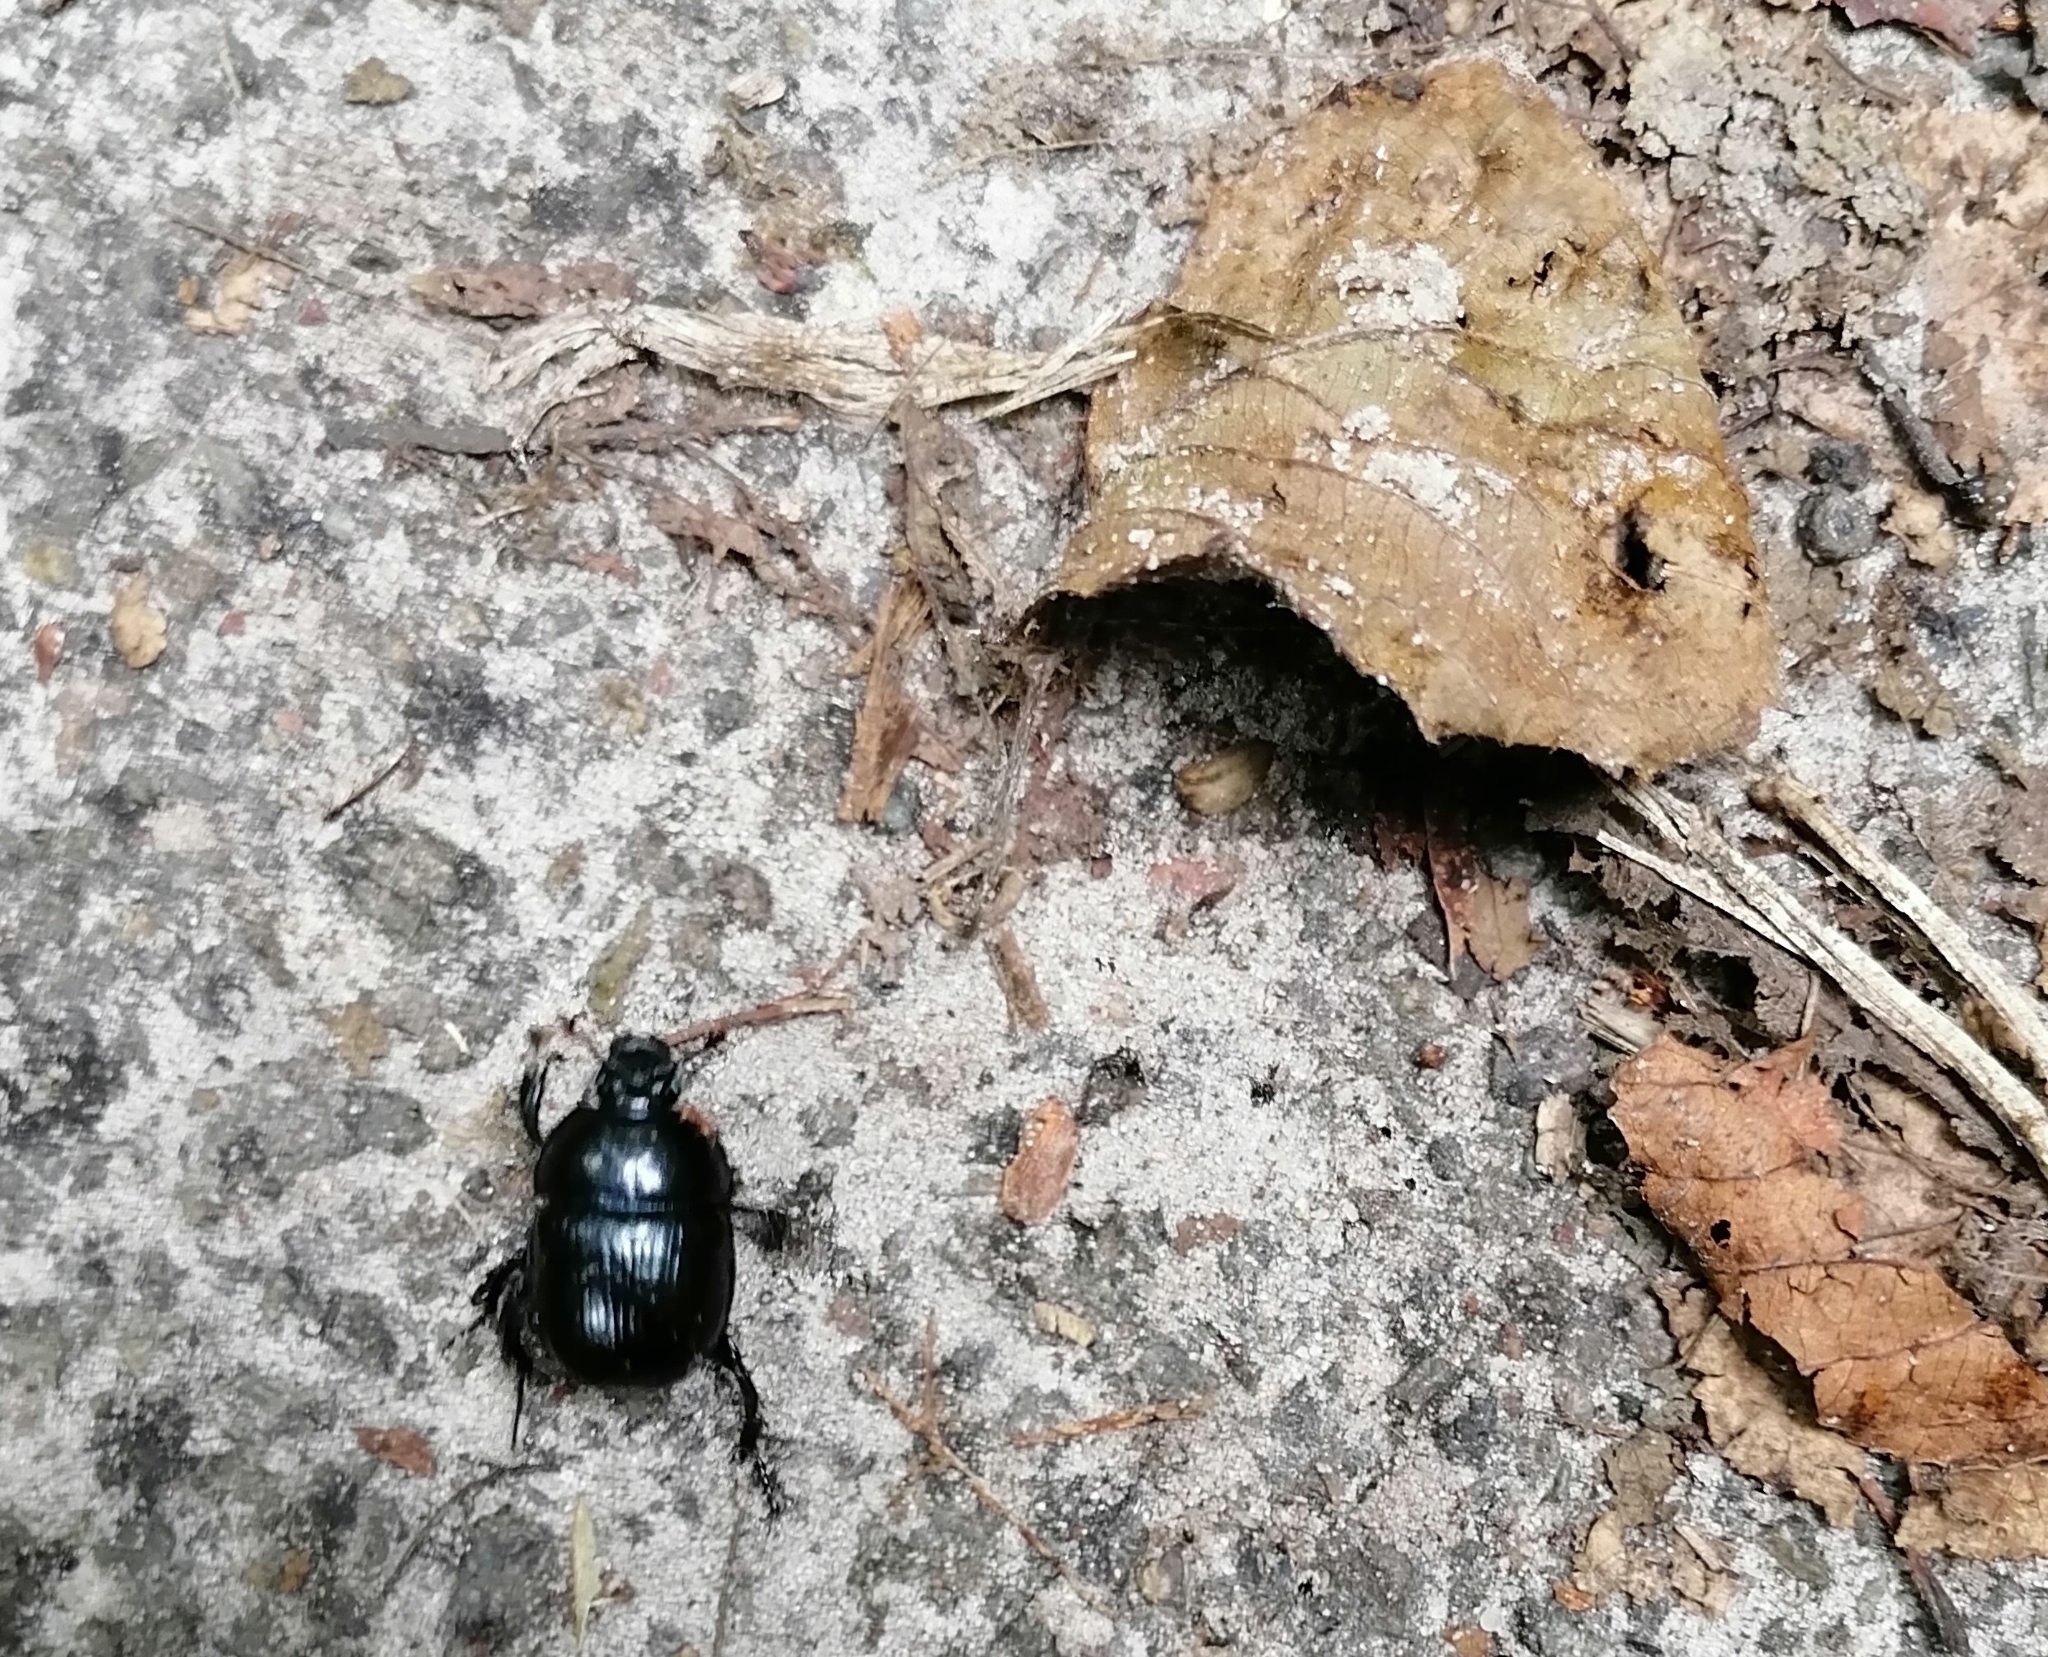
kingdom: Animalia
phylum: Arthropoda
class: Insecta
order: Coleoptera
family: Geotrupidae
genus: Anoplotrupes
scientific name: Anoplotrupes stercorosus
